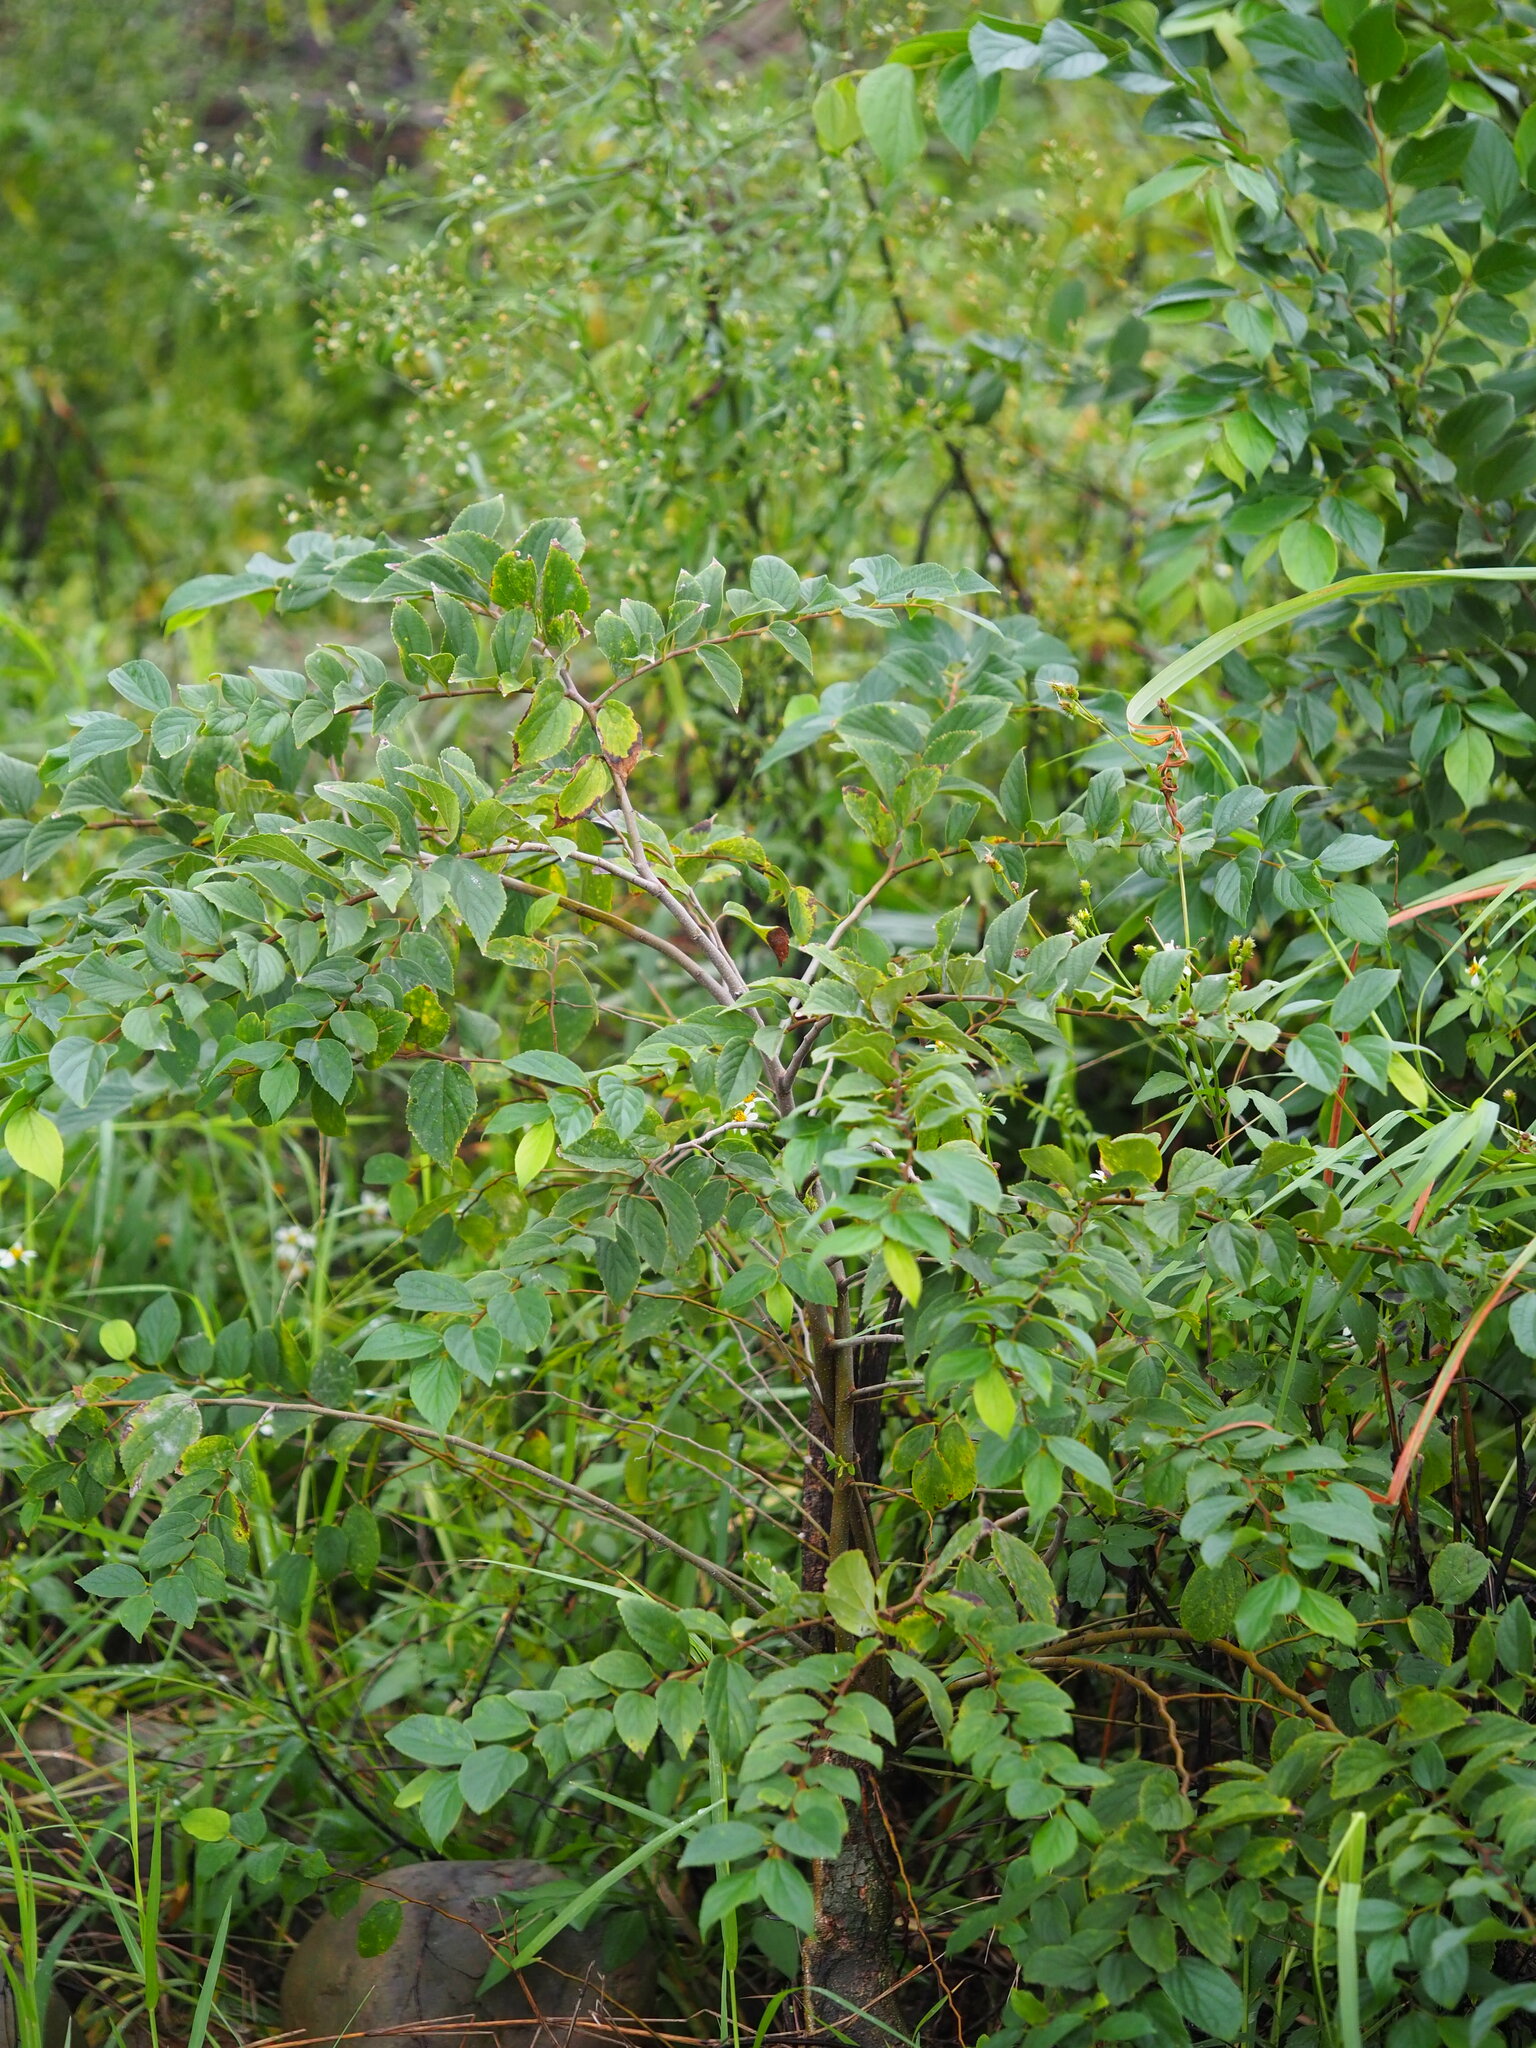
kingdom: Plantae
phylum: Tracheophyta
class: Magnoliopsida
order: Rosales
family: Cannabaceae
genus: Celtis
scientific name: Celtis sinensis
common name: Chinese hackberry
